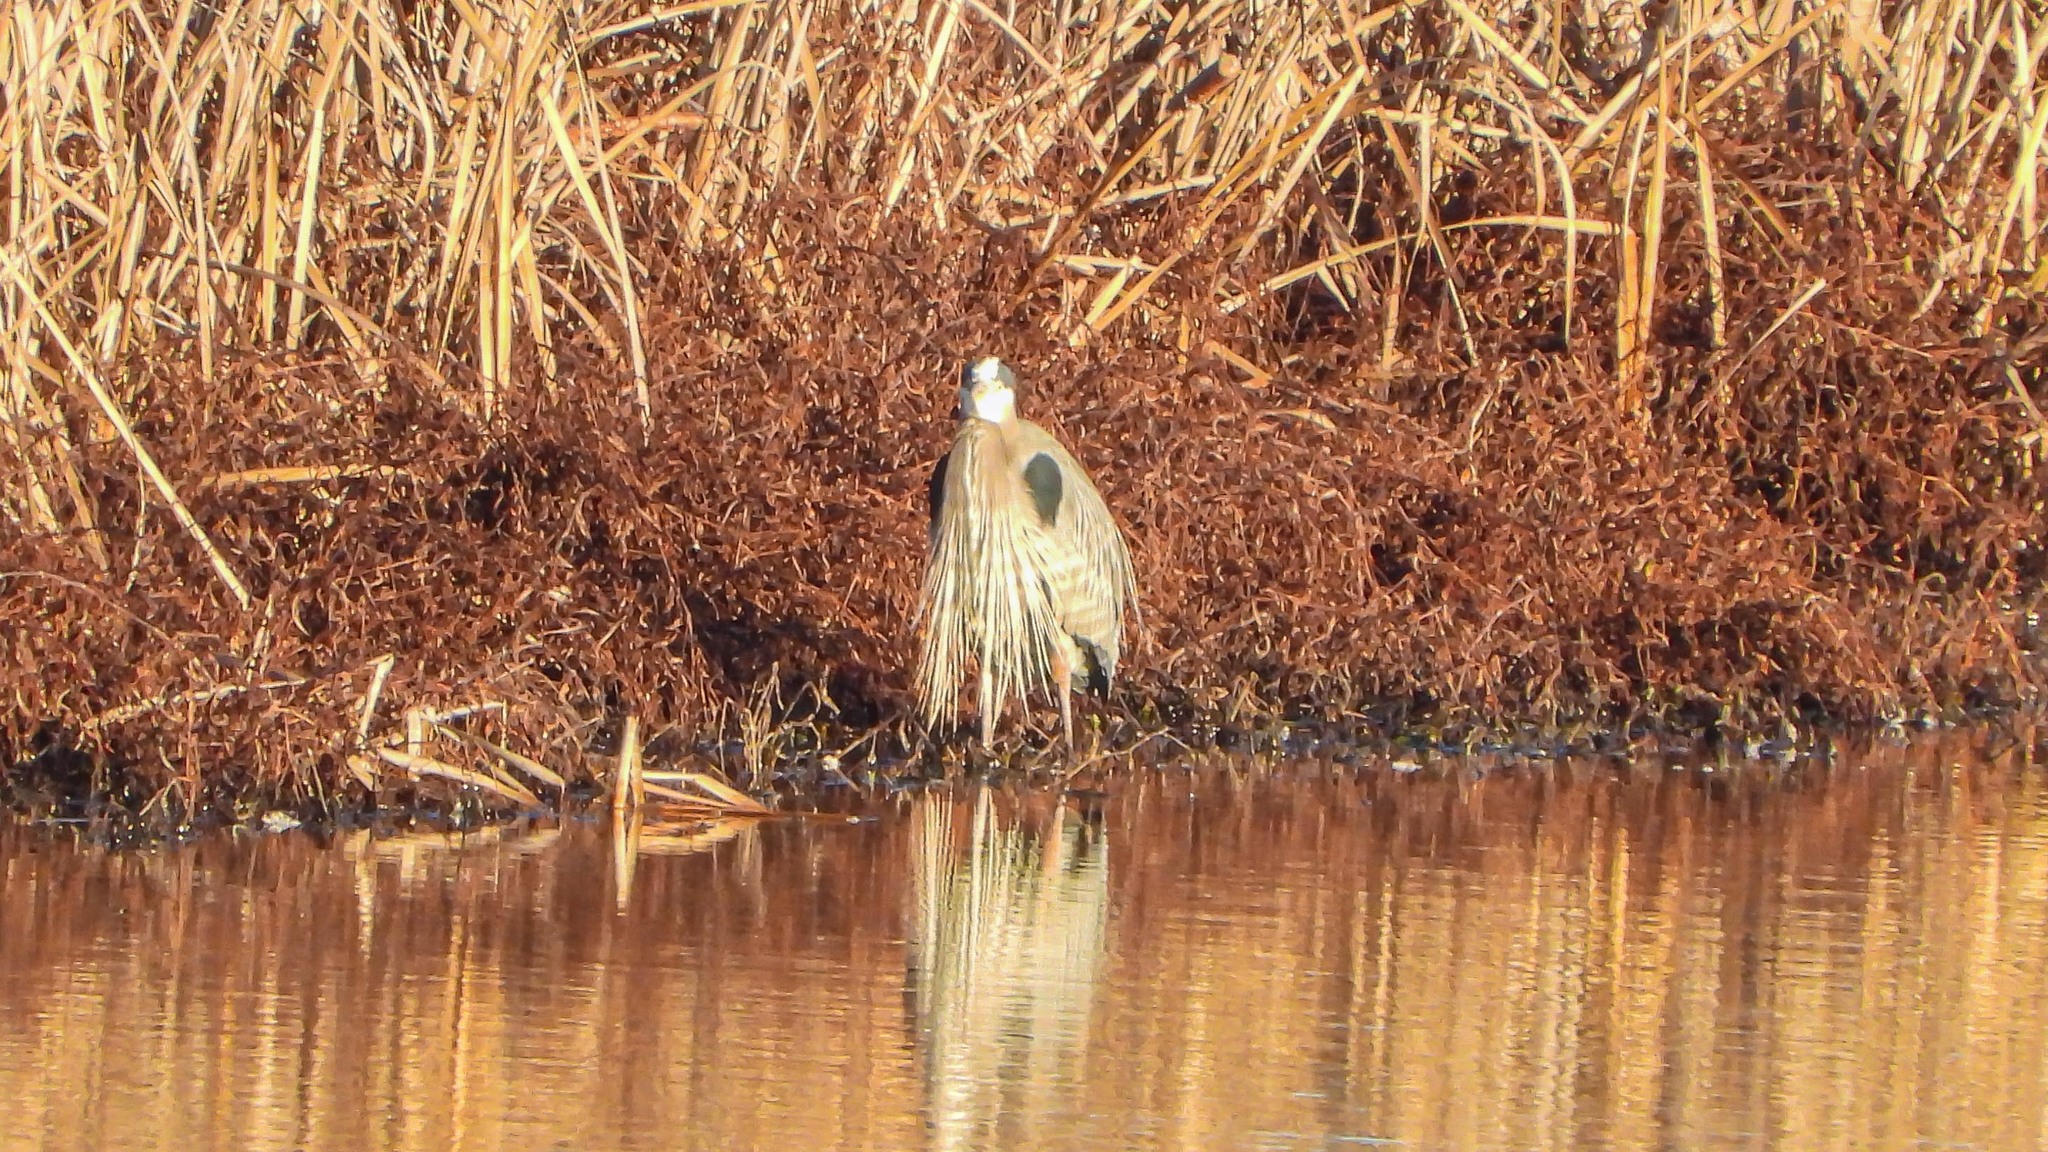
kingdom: Animalia
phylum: Chordata
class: Aves
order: Pelecaniformes
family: Ardeidae
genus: Ardea
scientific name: Ardea herodias
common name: Great blue heron
